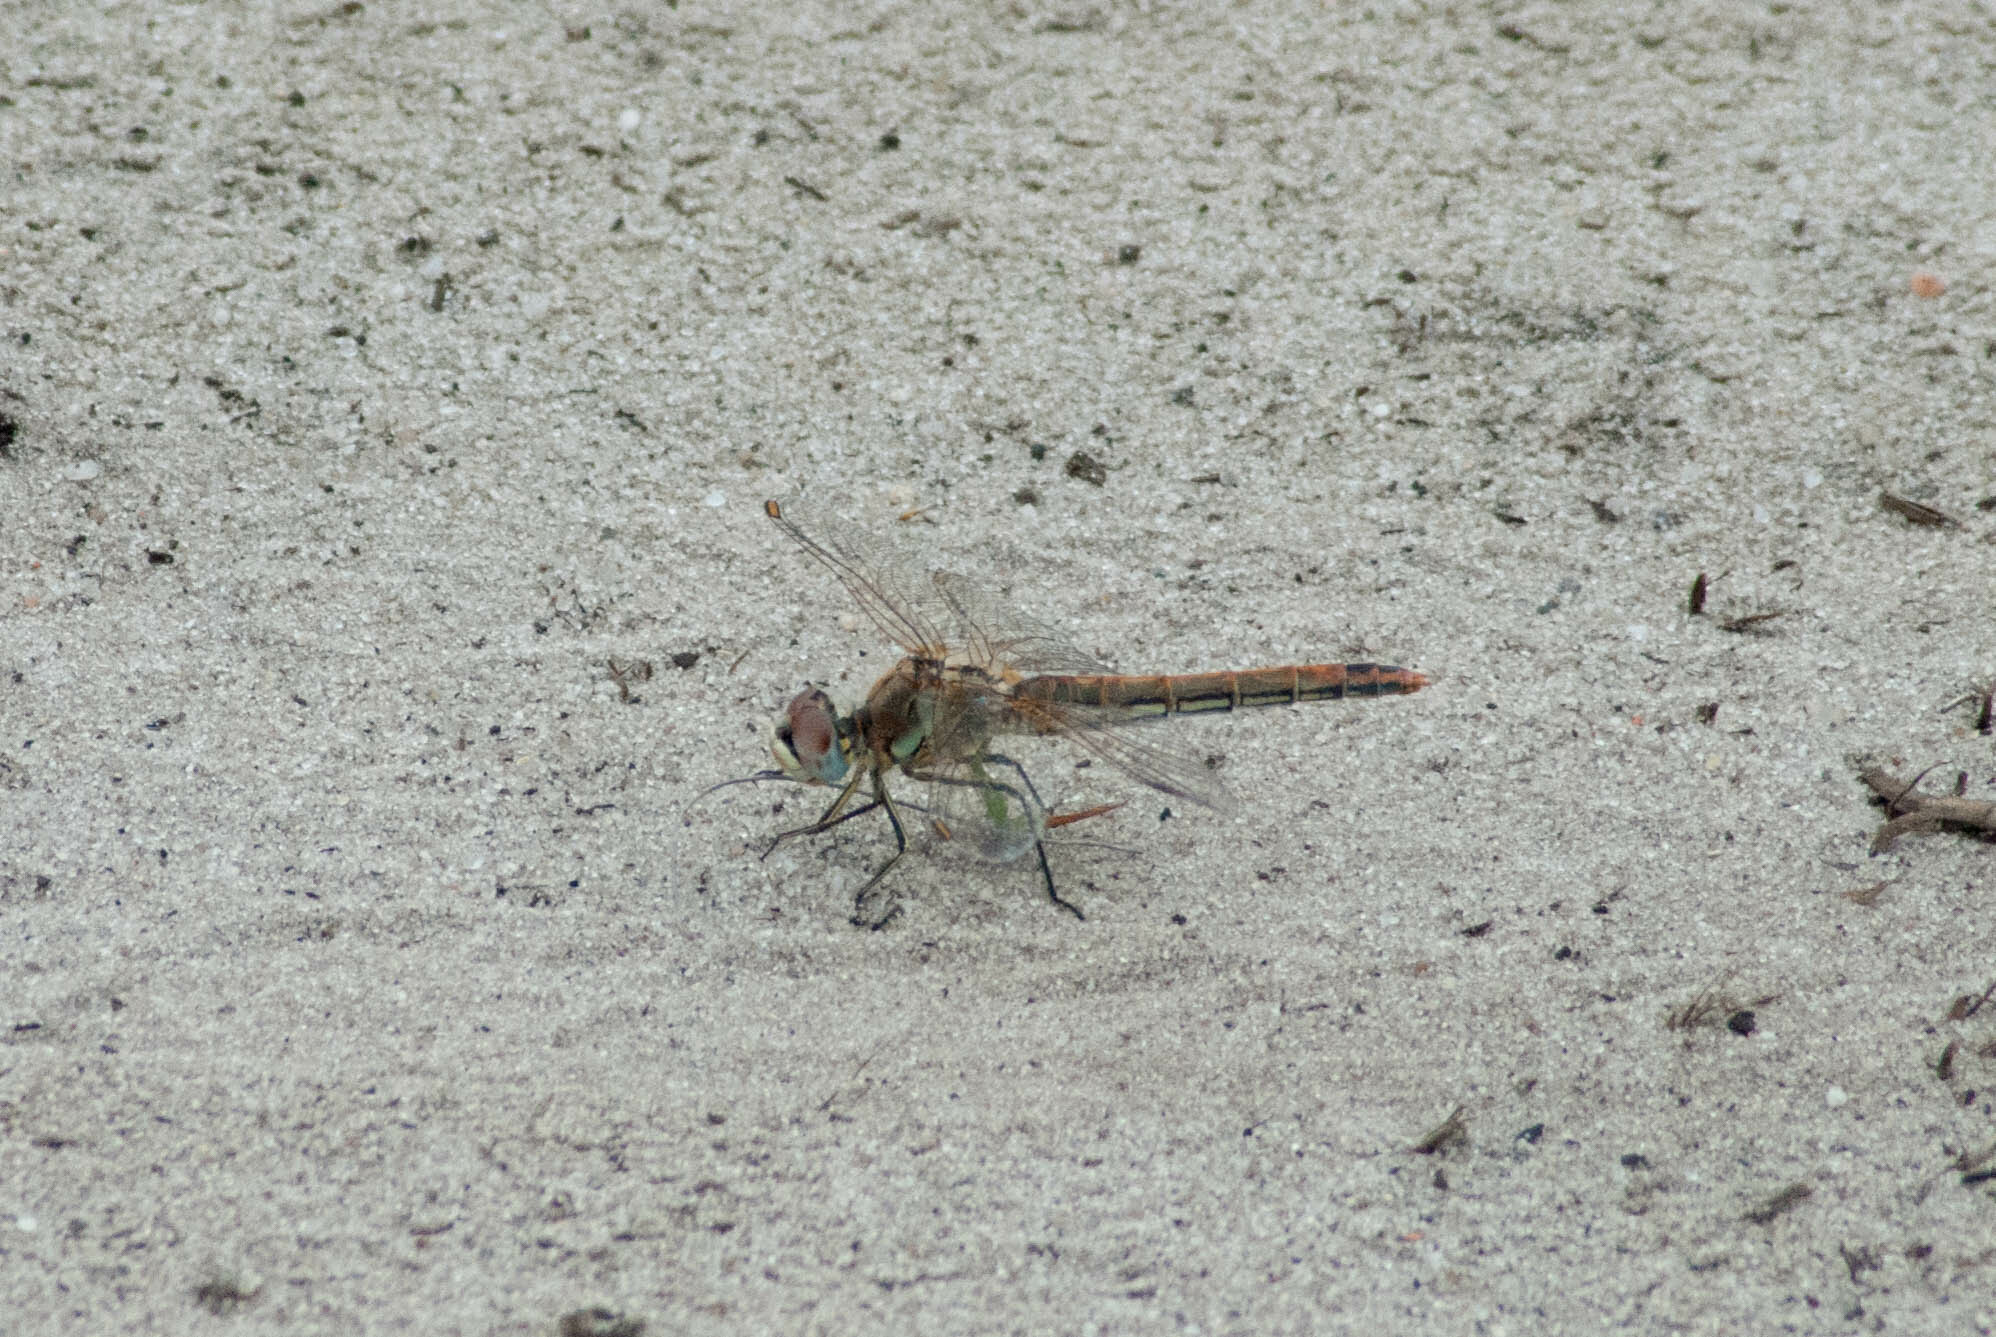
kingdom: Animalia
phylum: Arthropoda
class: Insecta
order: Odonata
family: Libellulidae
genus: Sympetrum
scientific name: Sympetrum fonscolombii
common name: Red-veined darter
